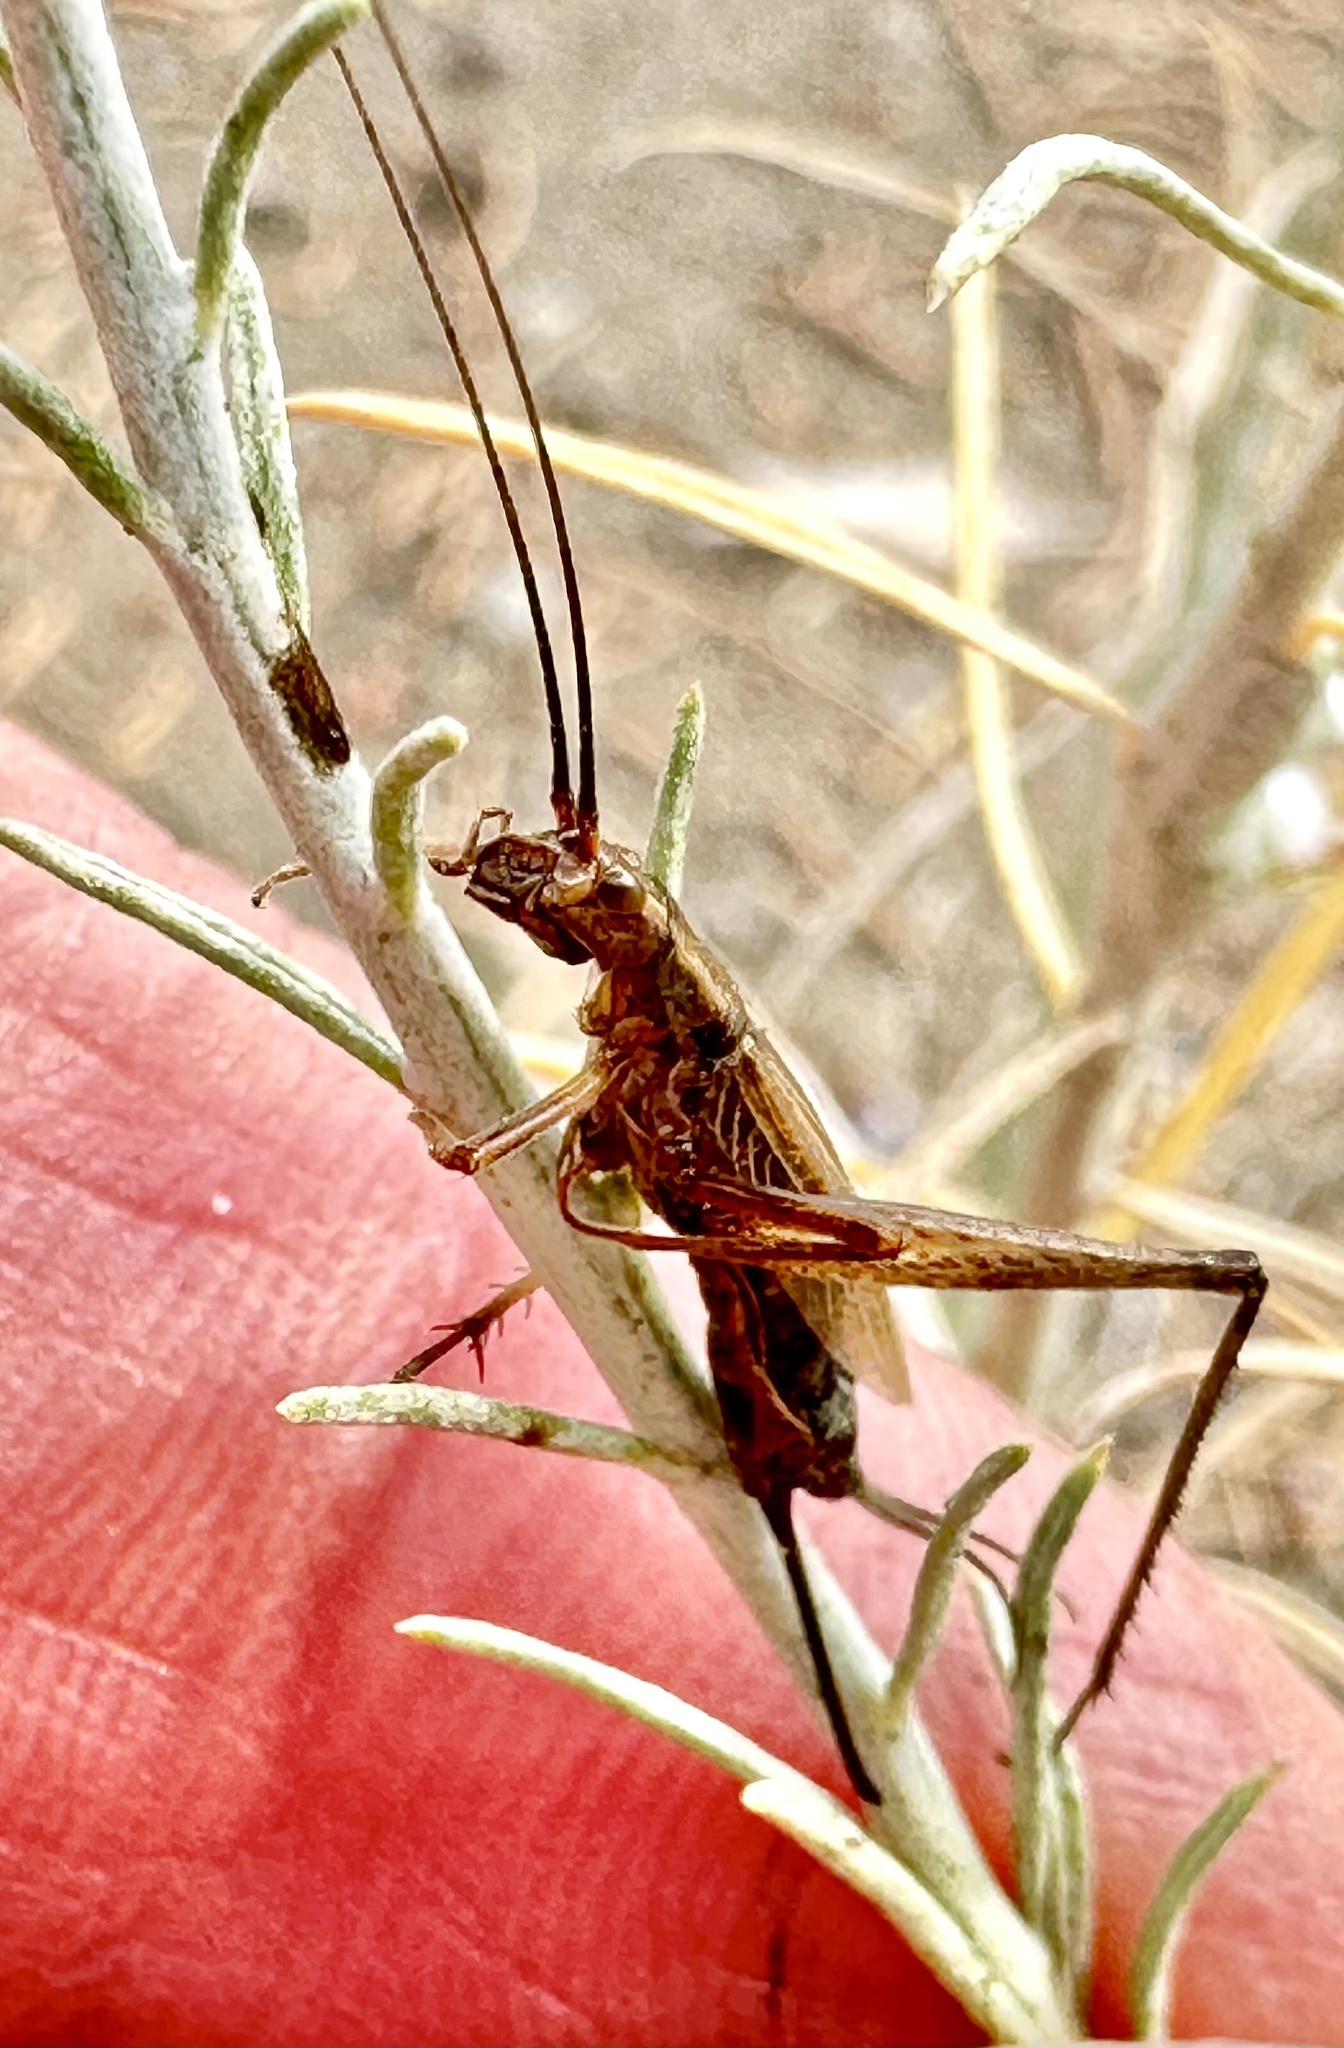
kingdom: Animalia
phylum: Arthropoda
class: Insecta
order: Orthoptera
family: Gryllidae
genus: Oecanthus
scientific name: Oecanthus californicus
